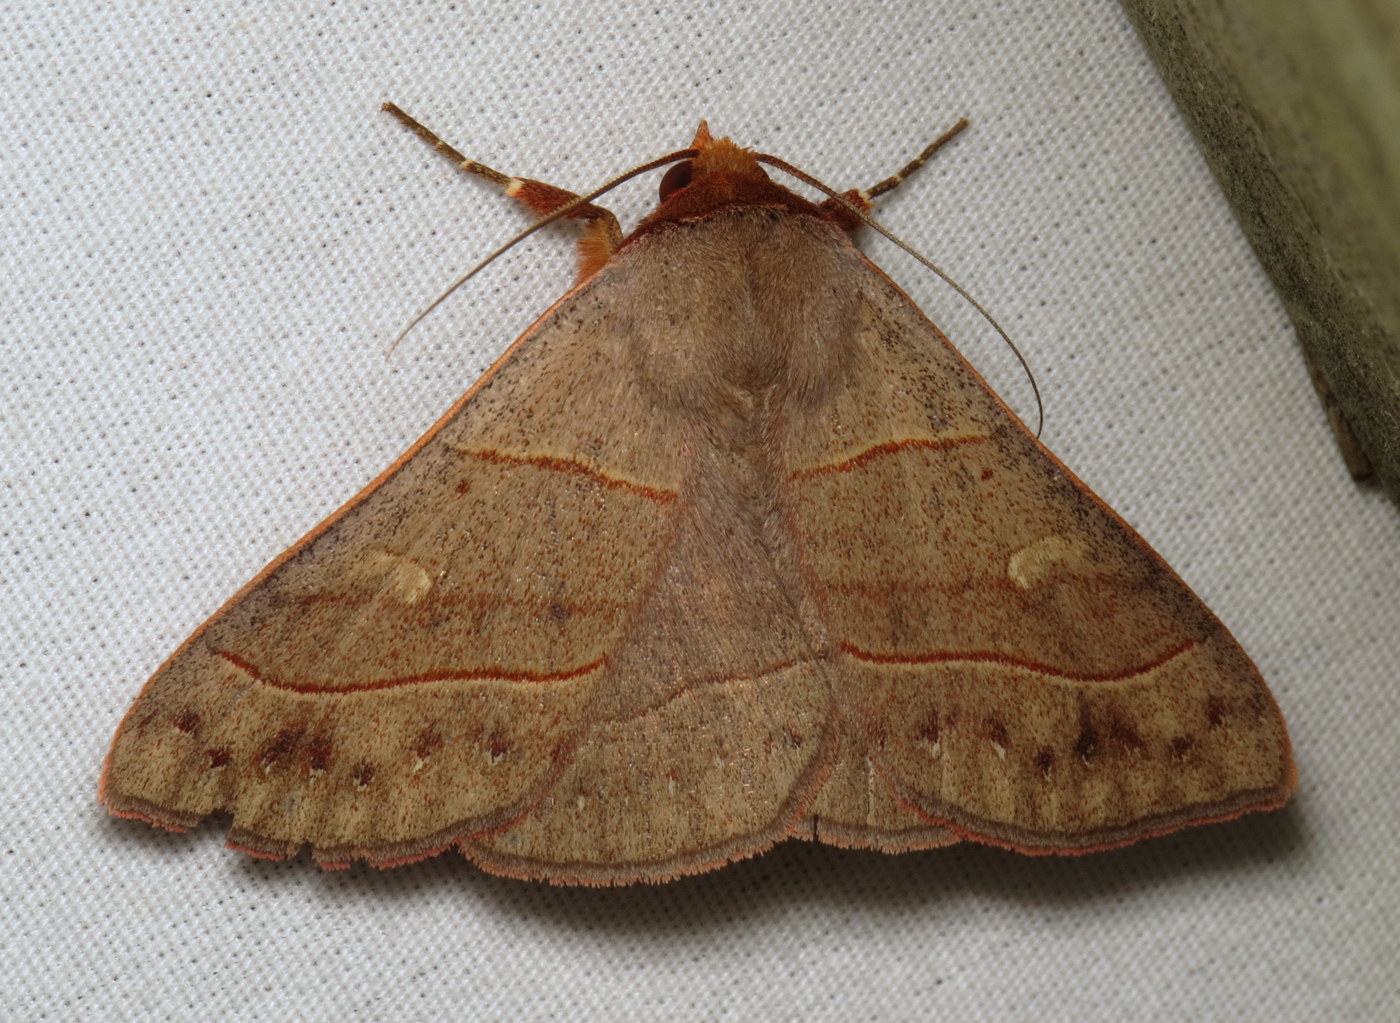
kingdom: Animalia
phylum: Arthropoda
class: Insecta
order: Lepidoptera
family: Erebidae
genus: Panopoda
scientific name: Panopoda rufimargo
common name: Red-lined panopoda moth
